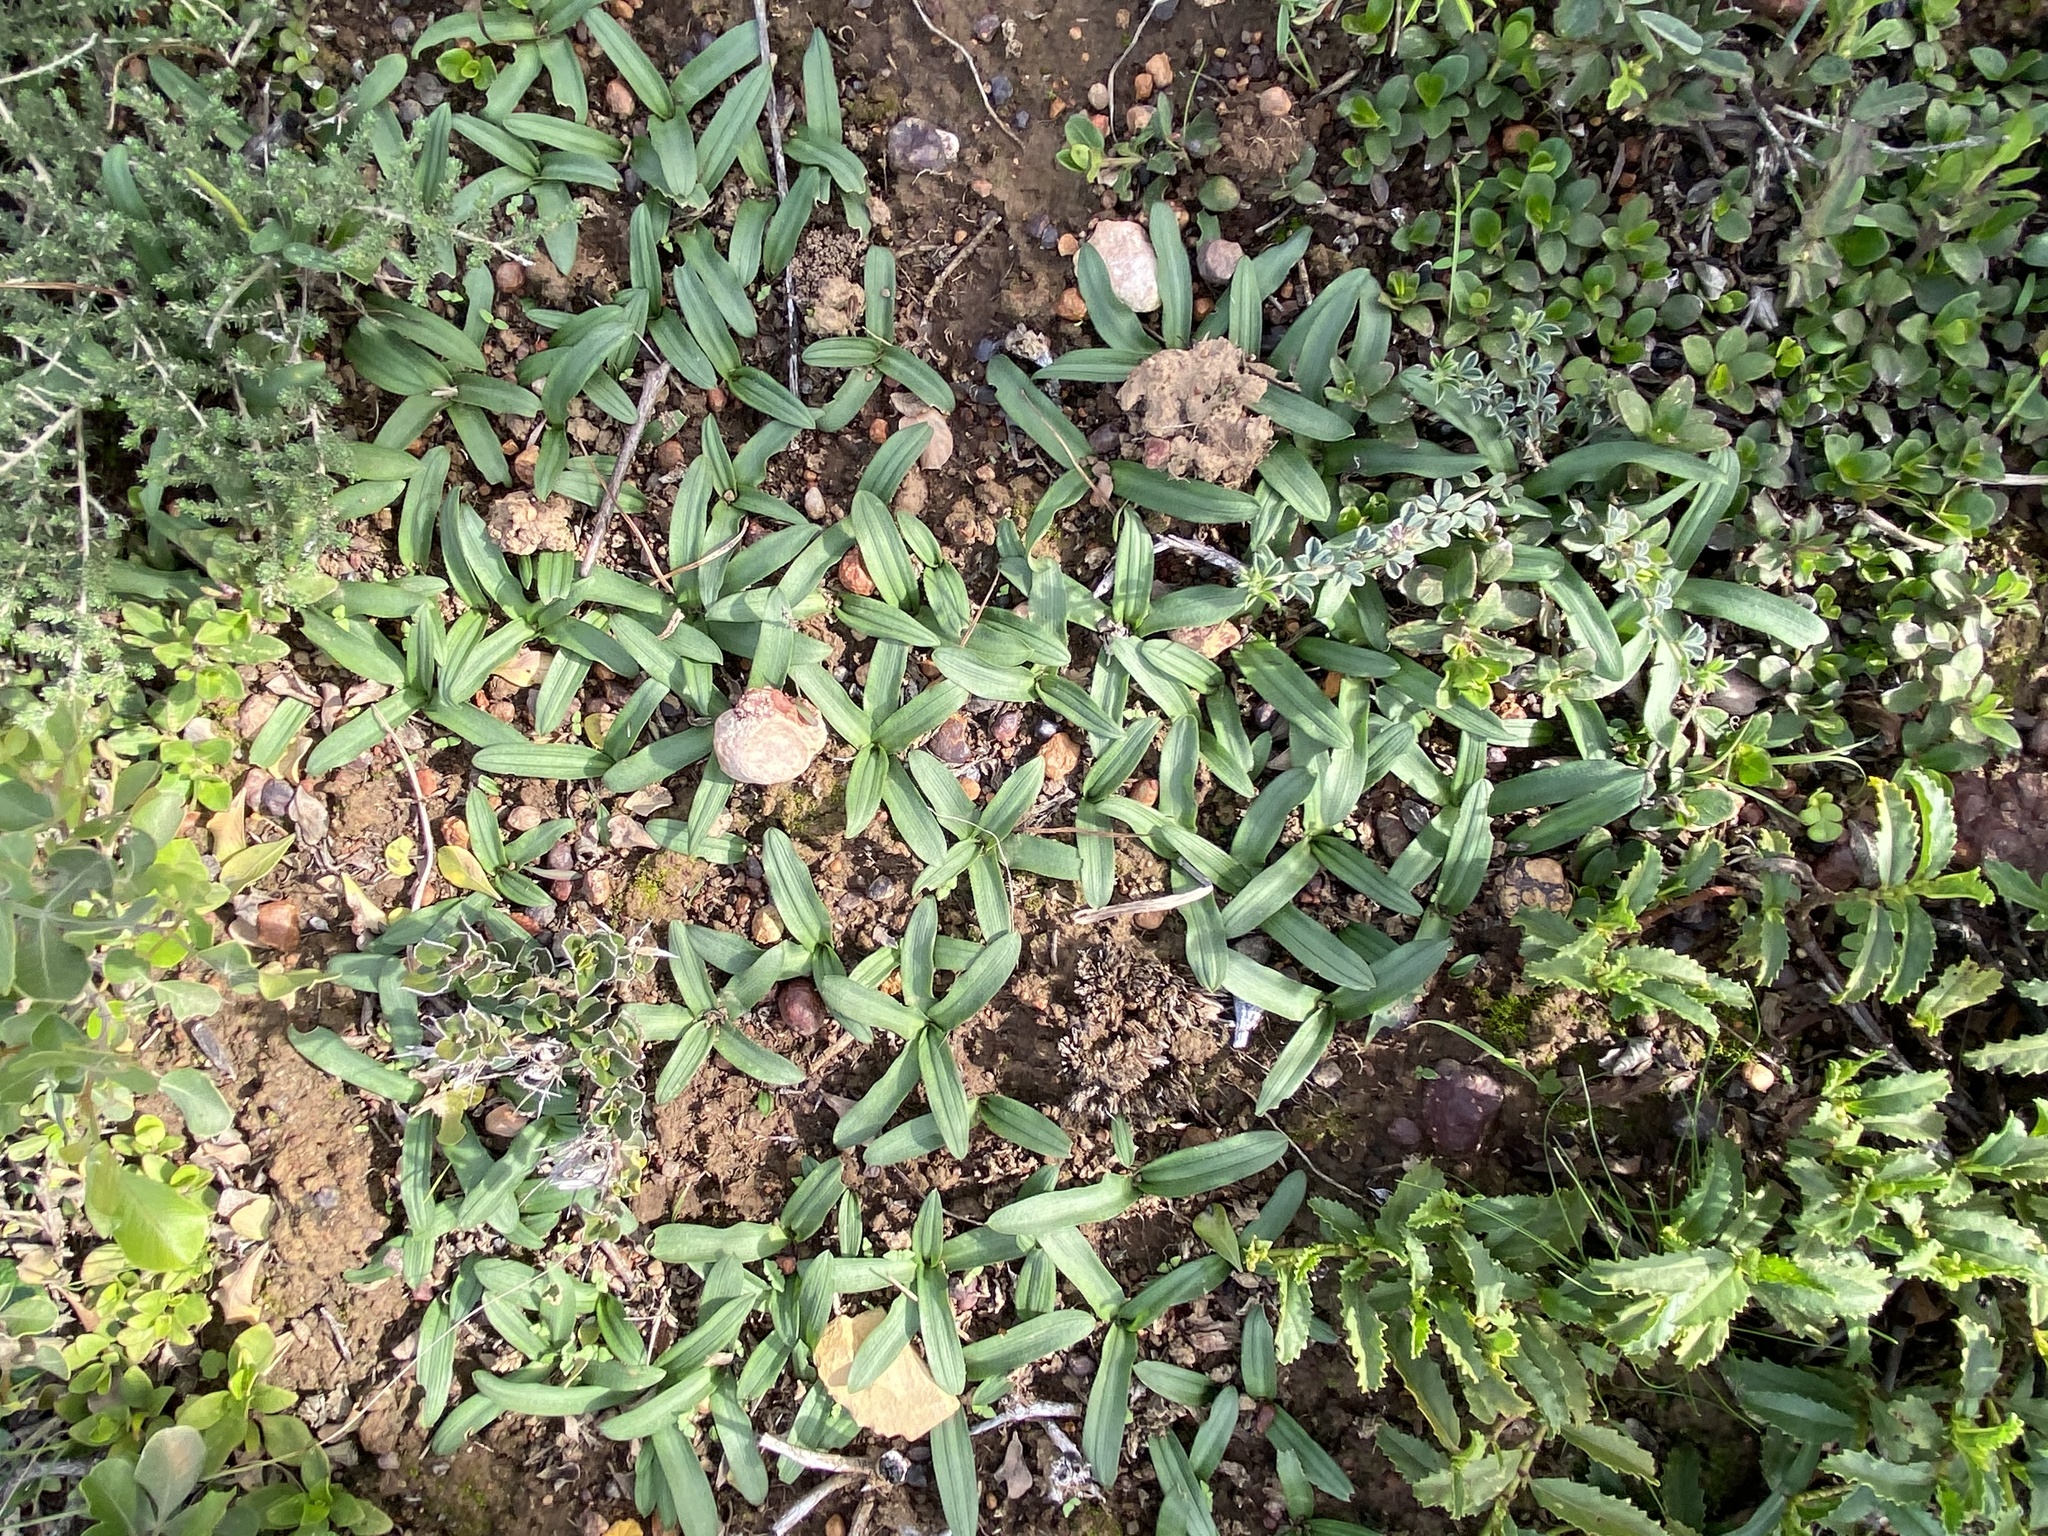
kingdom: Plantae
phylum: Tracheophyta
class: Liliopsida
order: Asparagales
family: Asparagaceae
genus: Drimia
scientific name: Drimia haworthioides
